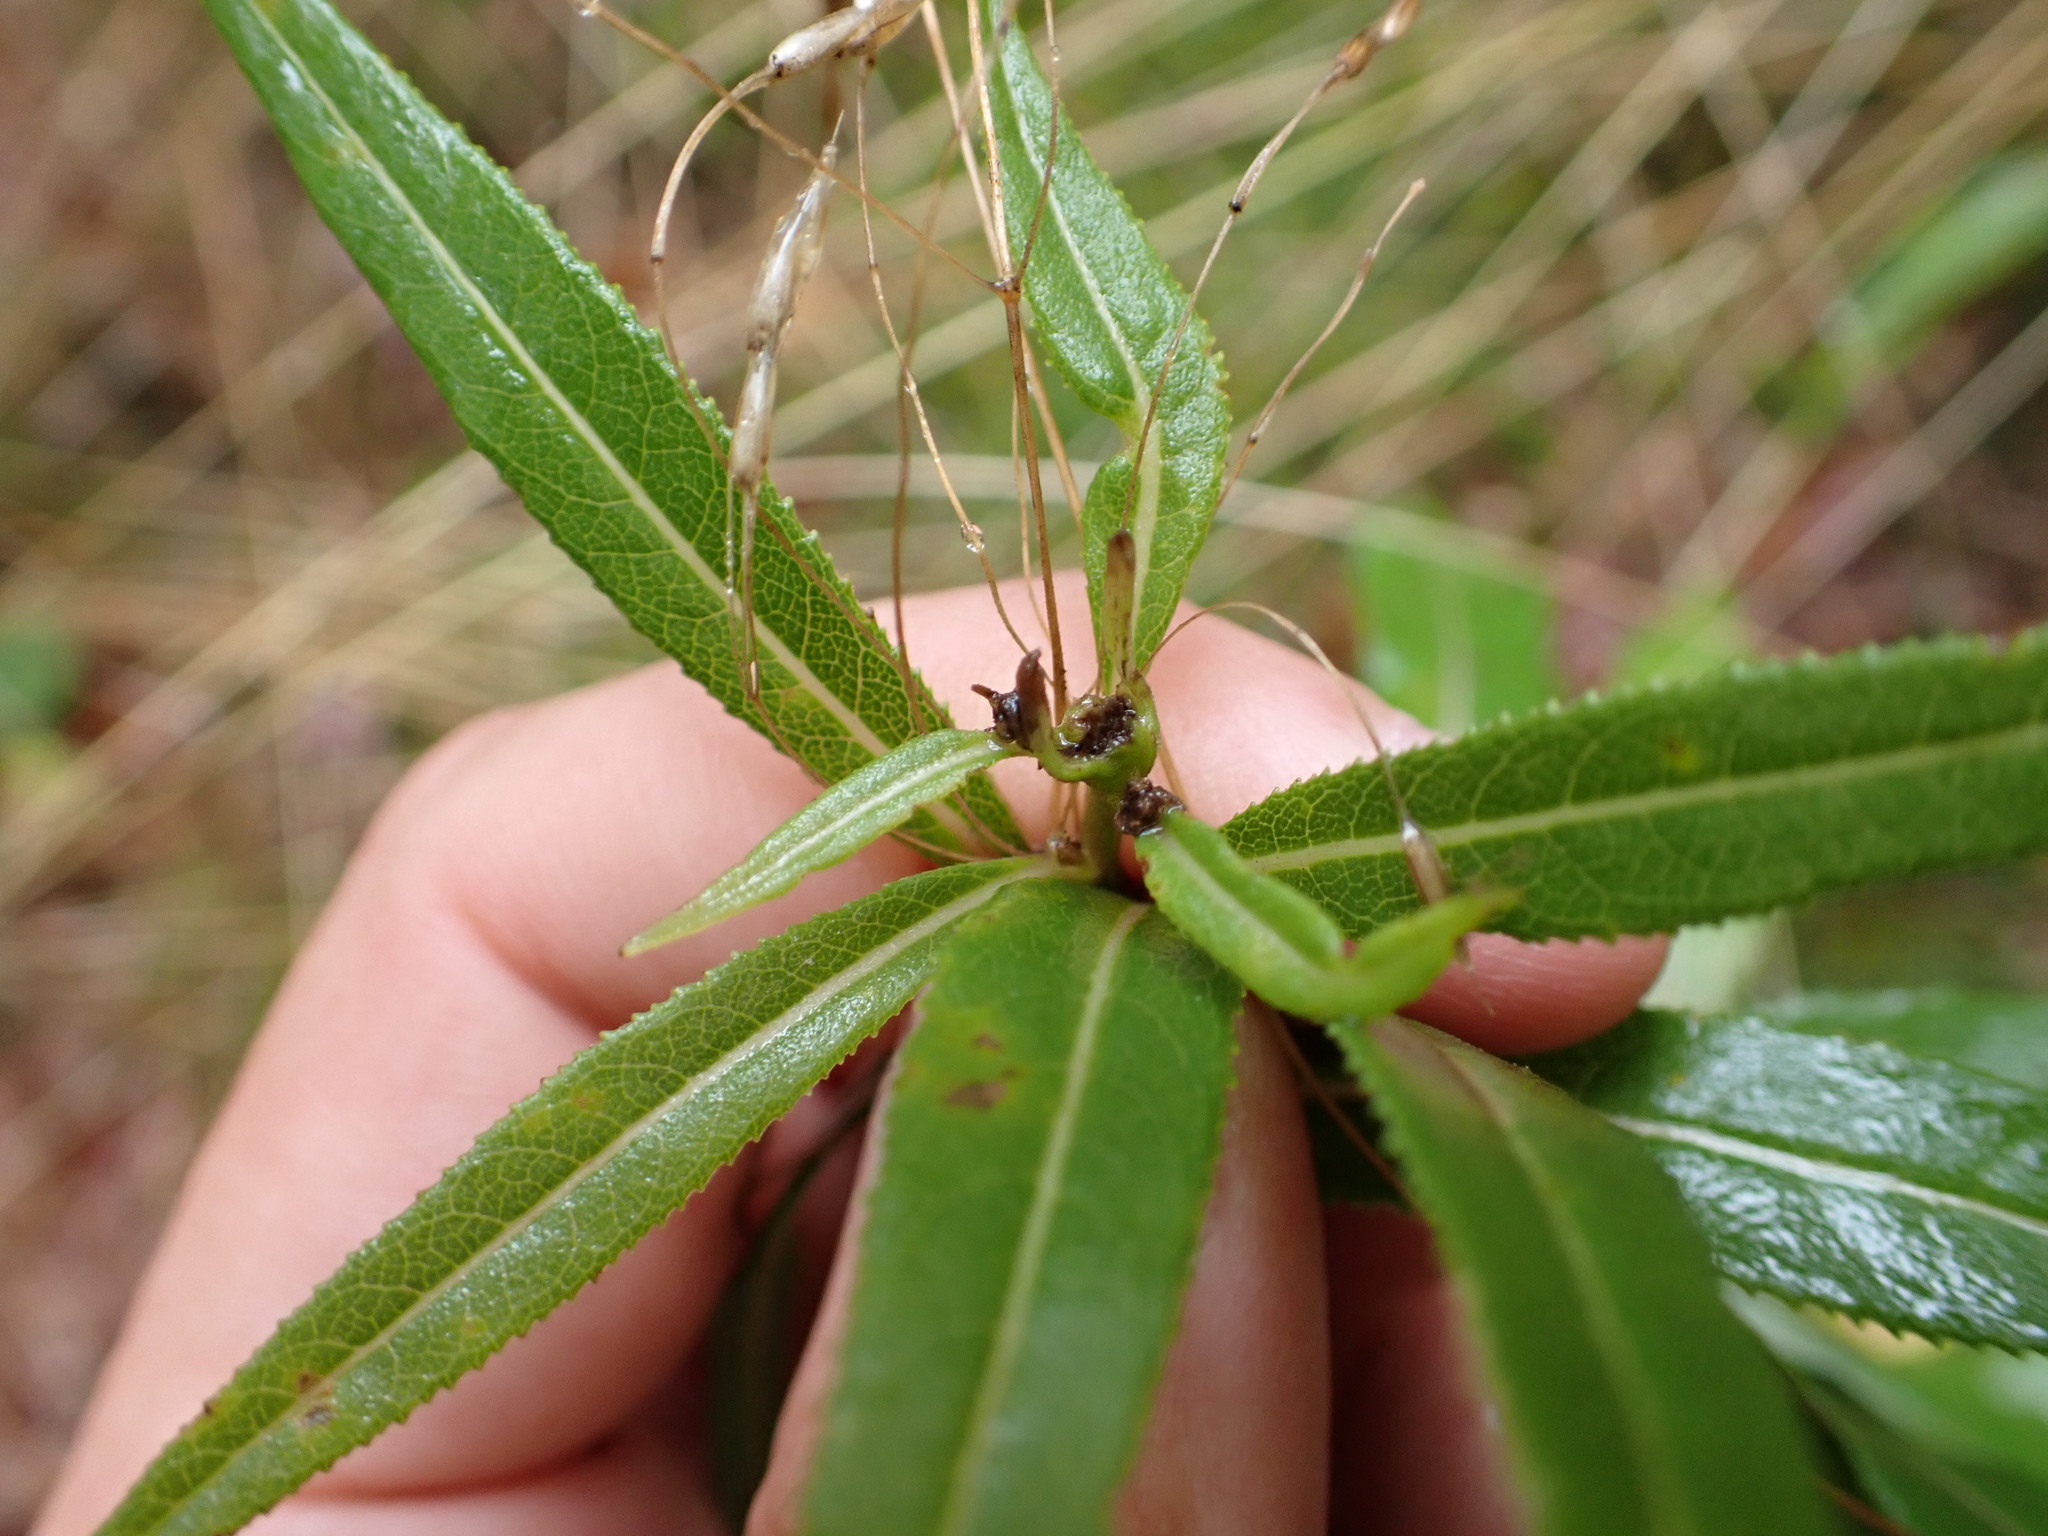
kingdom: Plantae
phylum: Tracheophyta
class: Magnoliopsida
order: Asterales
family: Asteraceae
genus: Senecio
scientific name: Senecio ovatus
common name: Wood ragwort
